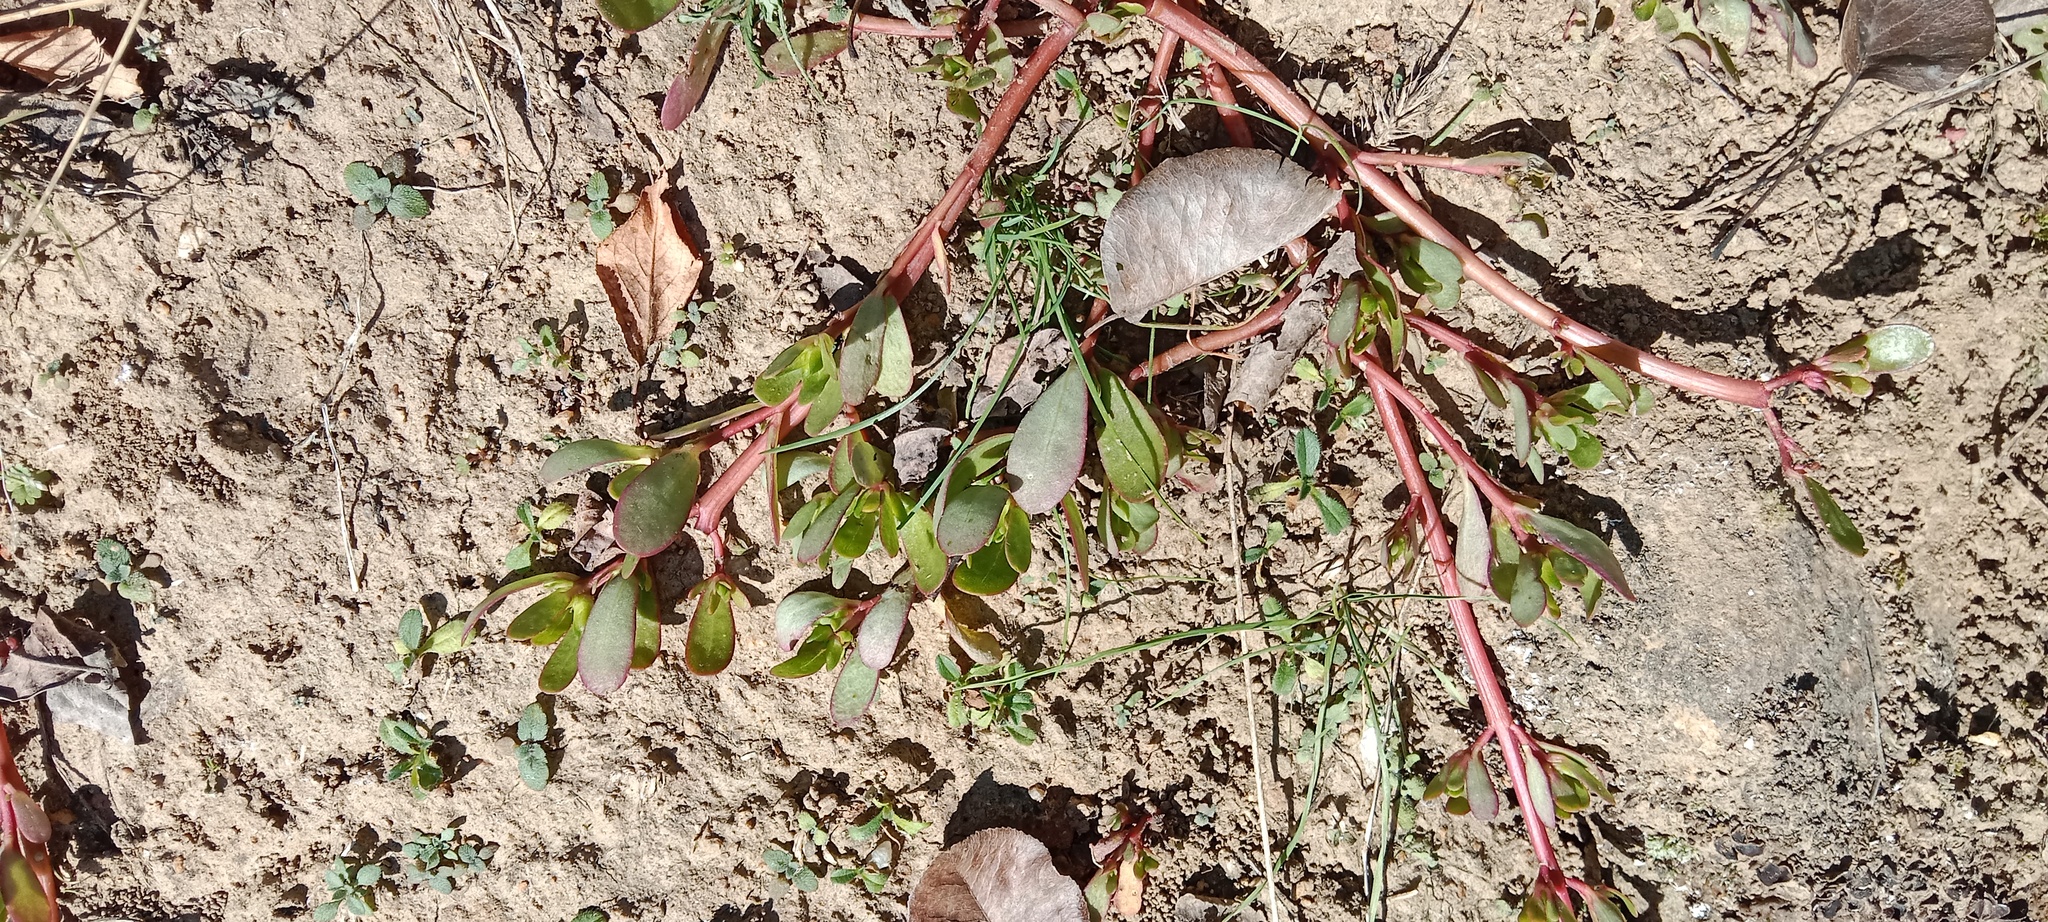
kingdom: Plantae
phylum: Tracheophyta
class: Magnoliopsida
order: Caryophyllales
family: Portulacaceae
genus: Portulaca
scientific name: Portulaca oleracea
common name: Common purslane
